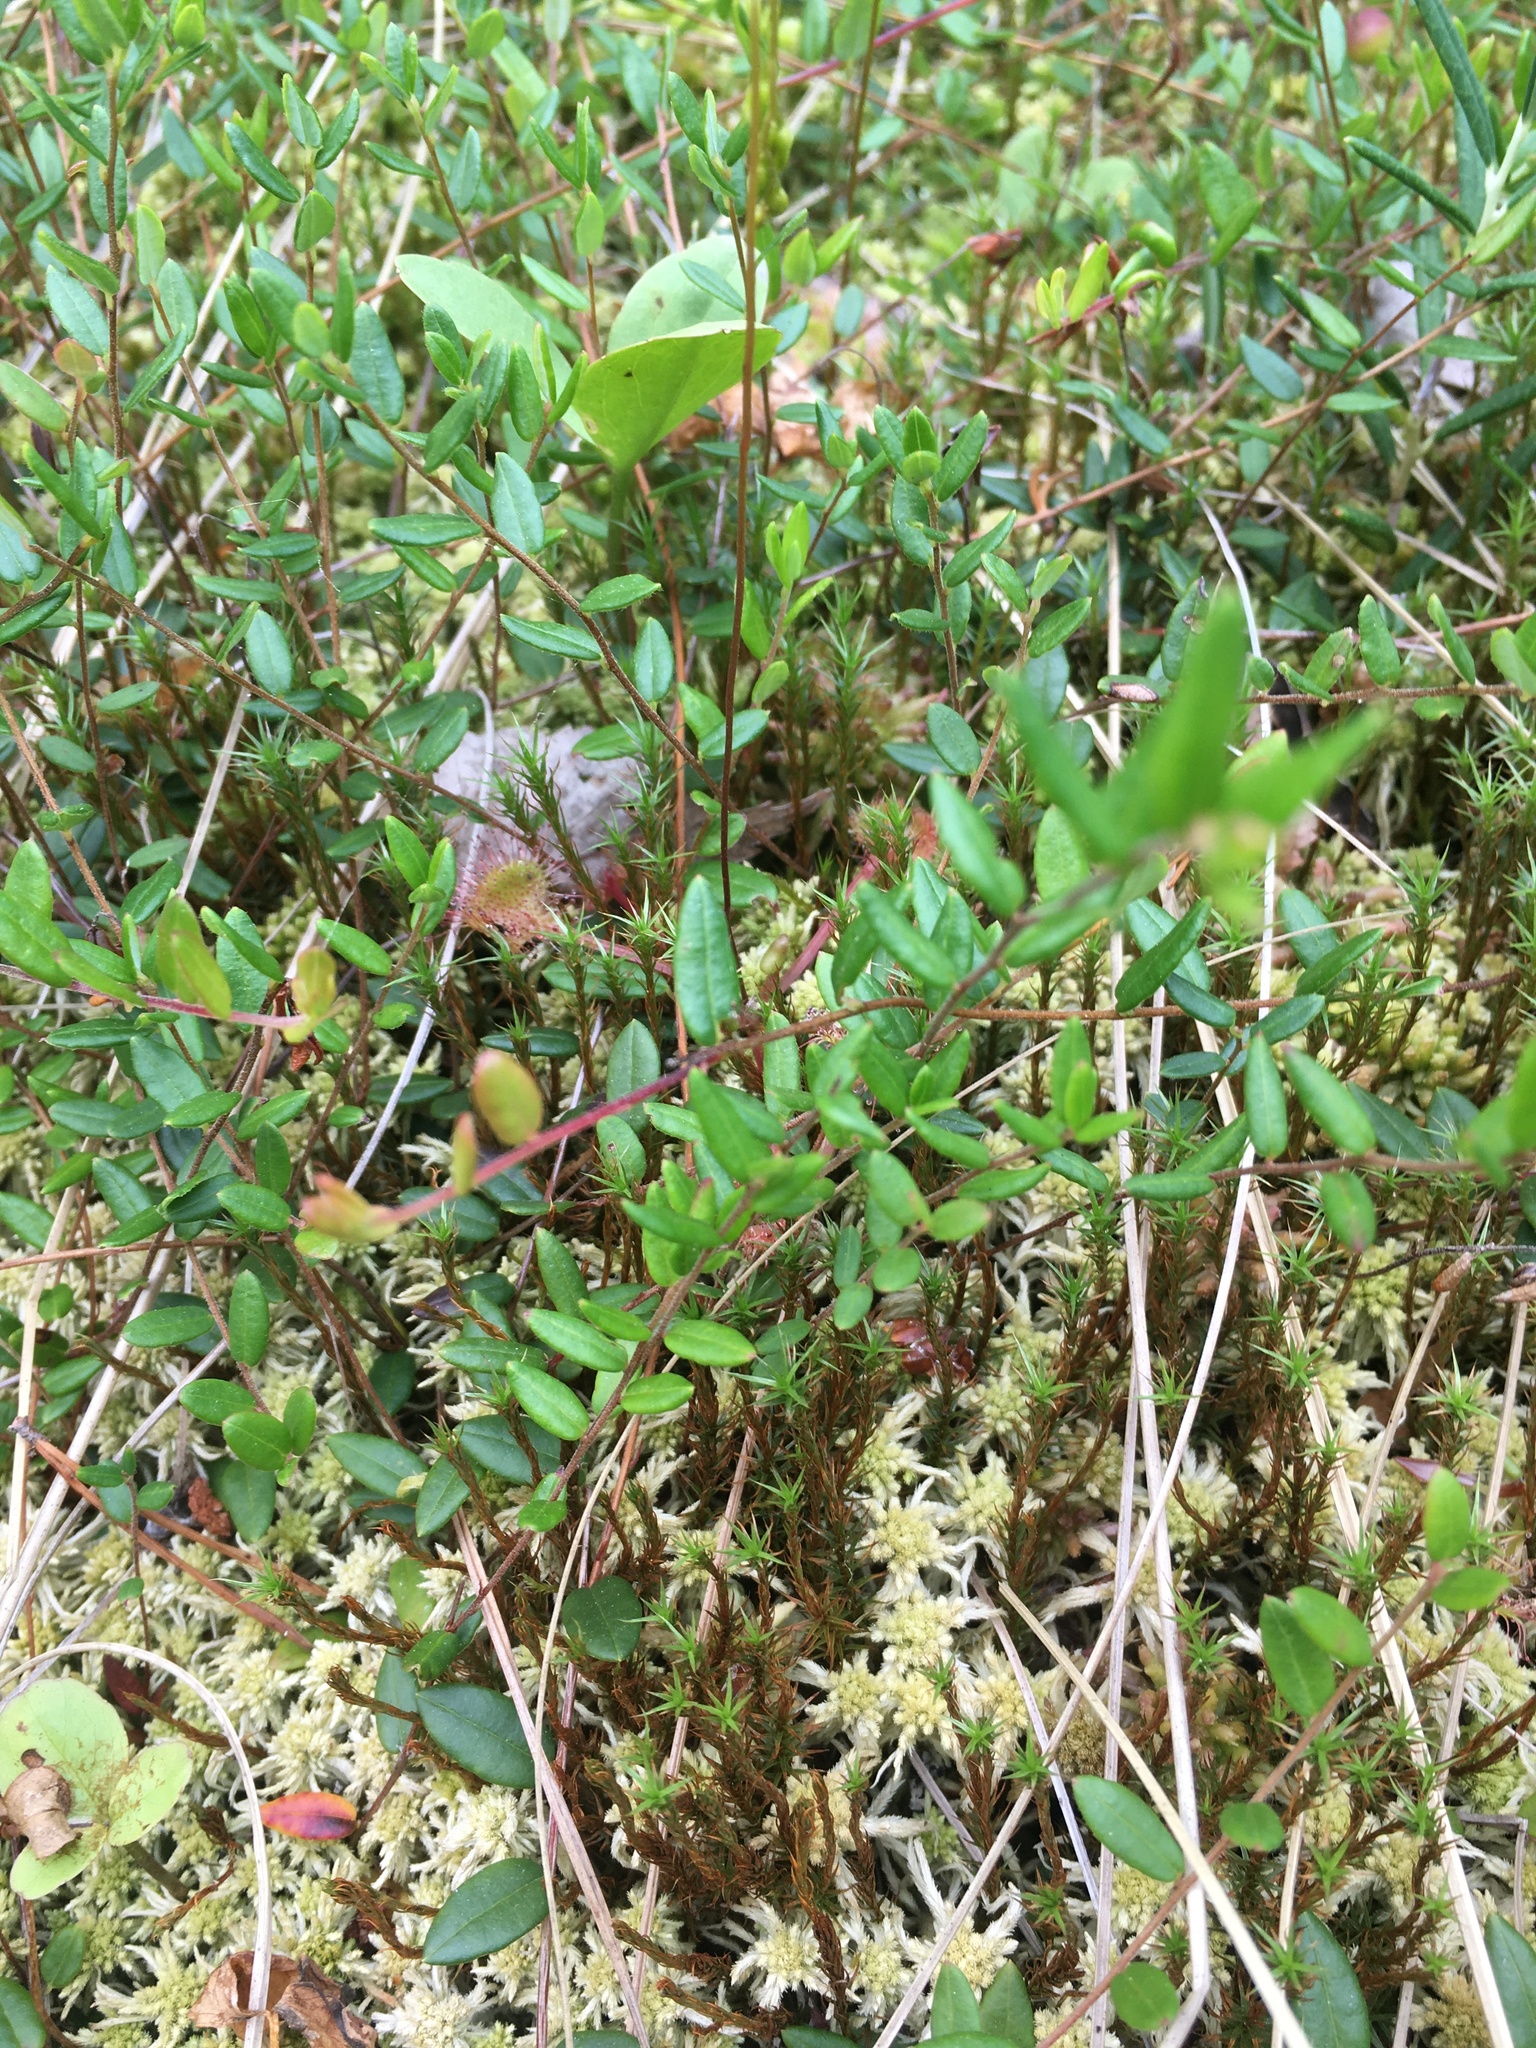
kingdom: Plantae
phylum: Tracheophyta
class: Magnoliopsida
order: Ericales
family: Ericaceae
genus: Vaccinium
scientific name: Vaccinium oxycoccos
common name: Cranberry
